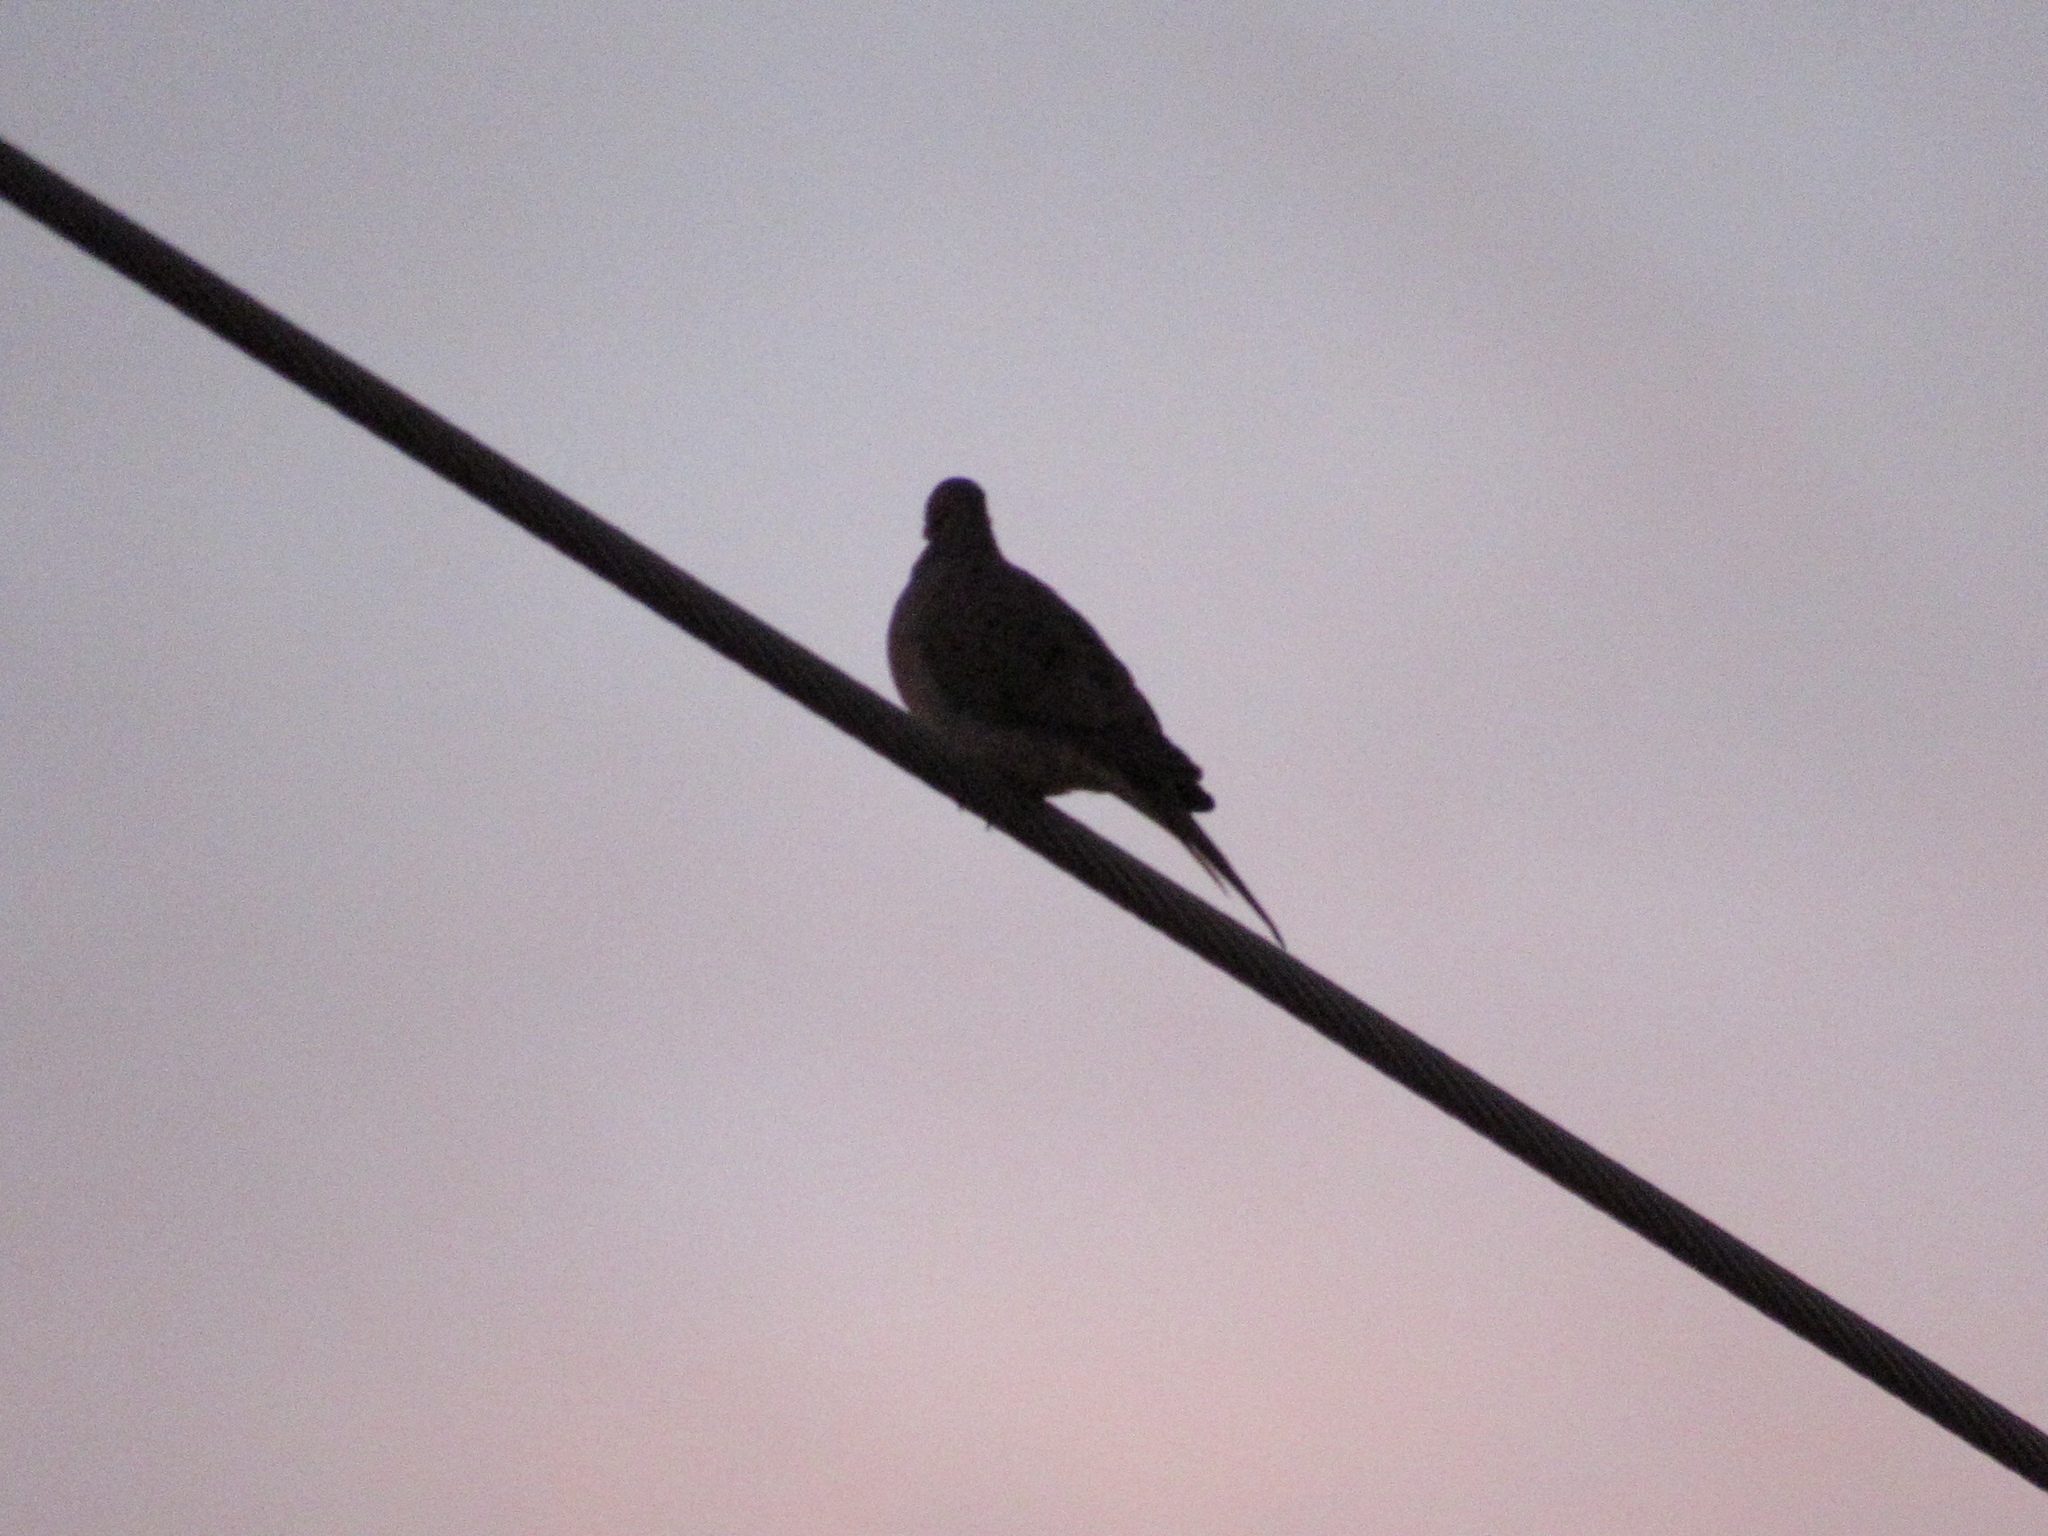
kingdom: Animalia
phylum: Chordata
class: Aves
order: Columbiformes
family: Columbidae
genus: Zenaida
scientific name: Zenaida macroura
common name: Mourning dove
